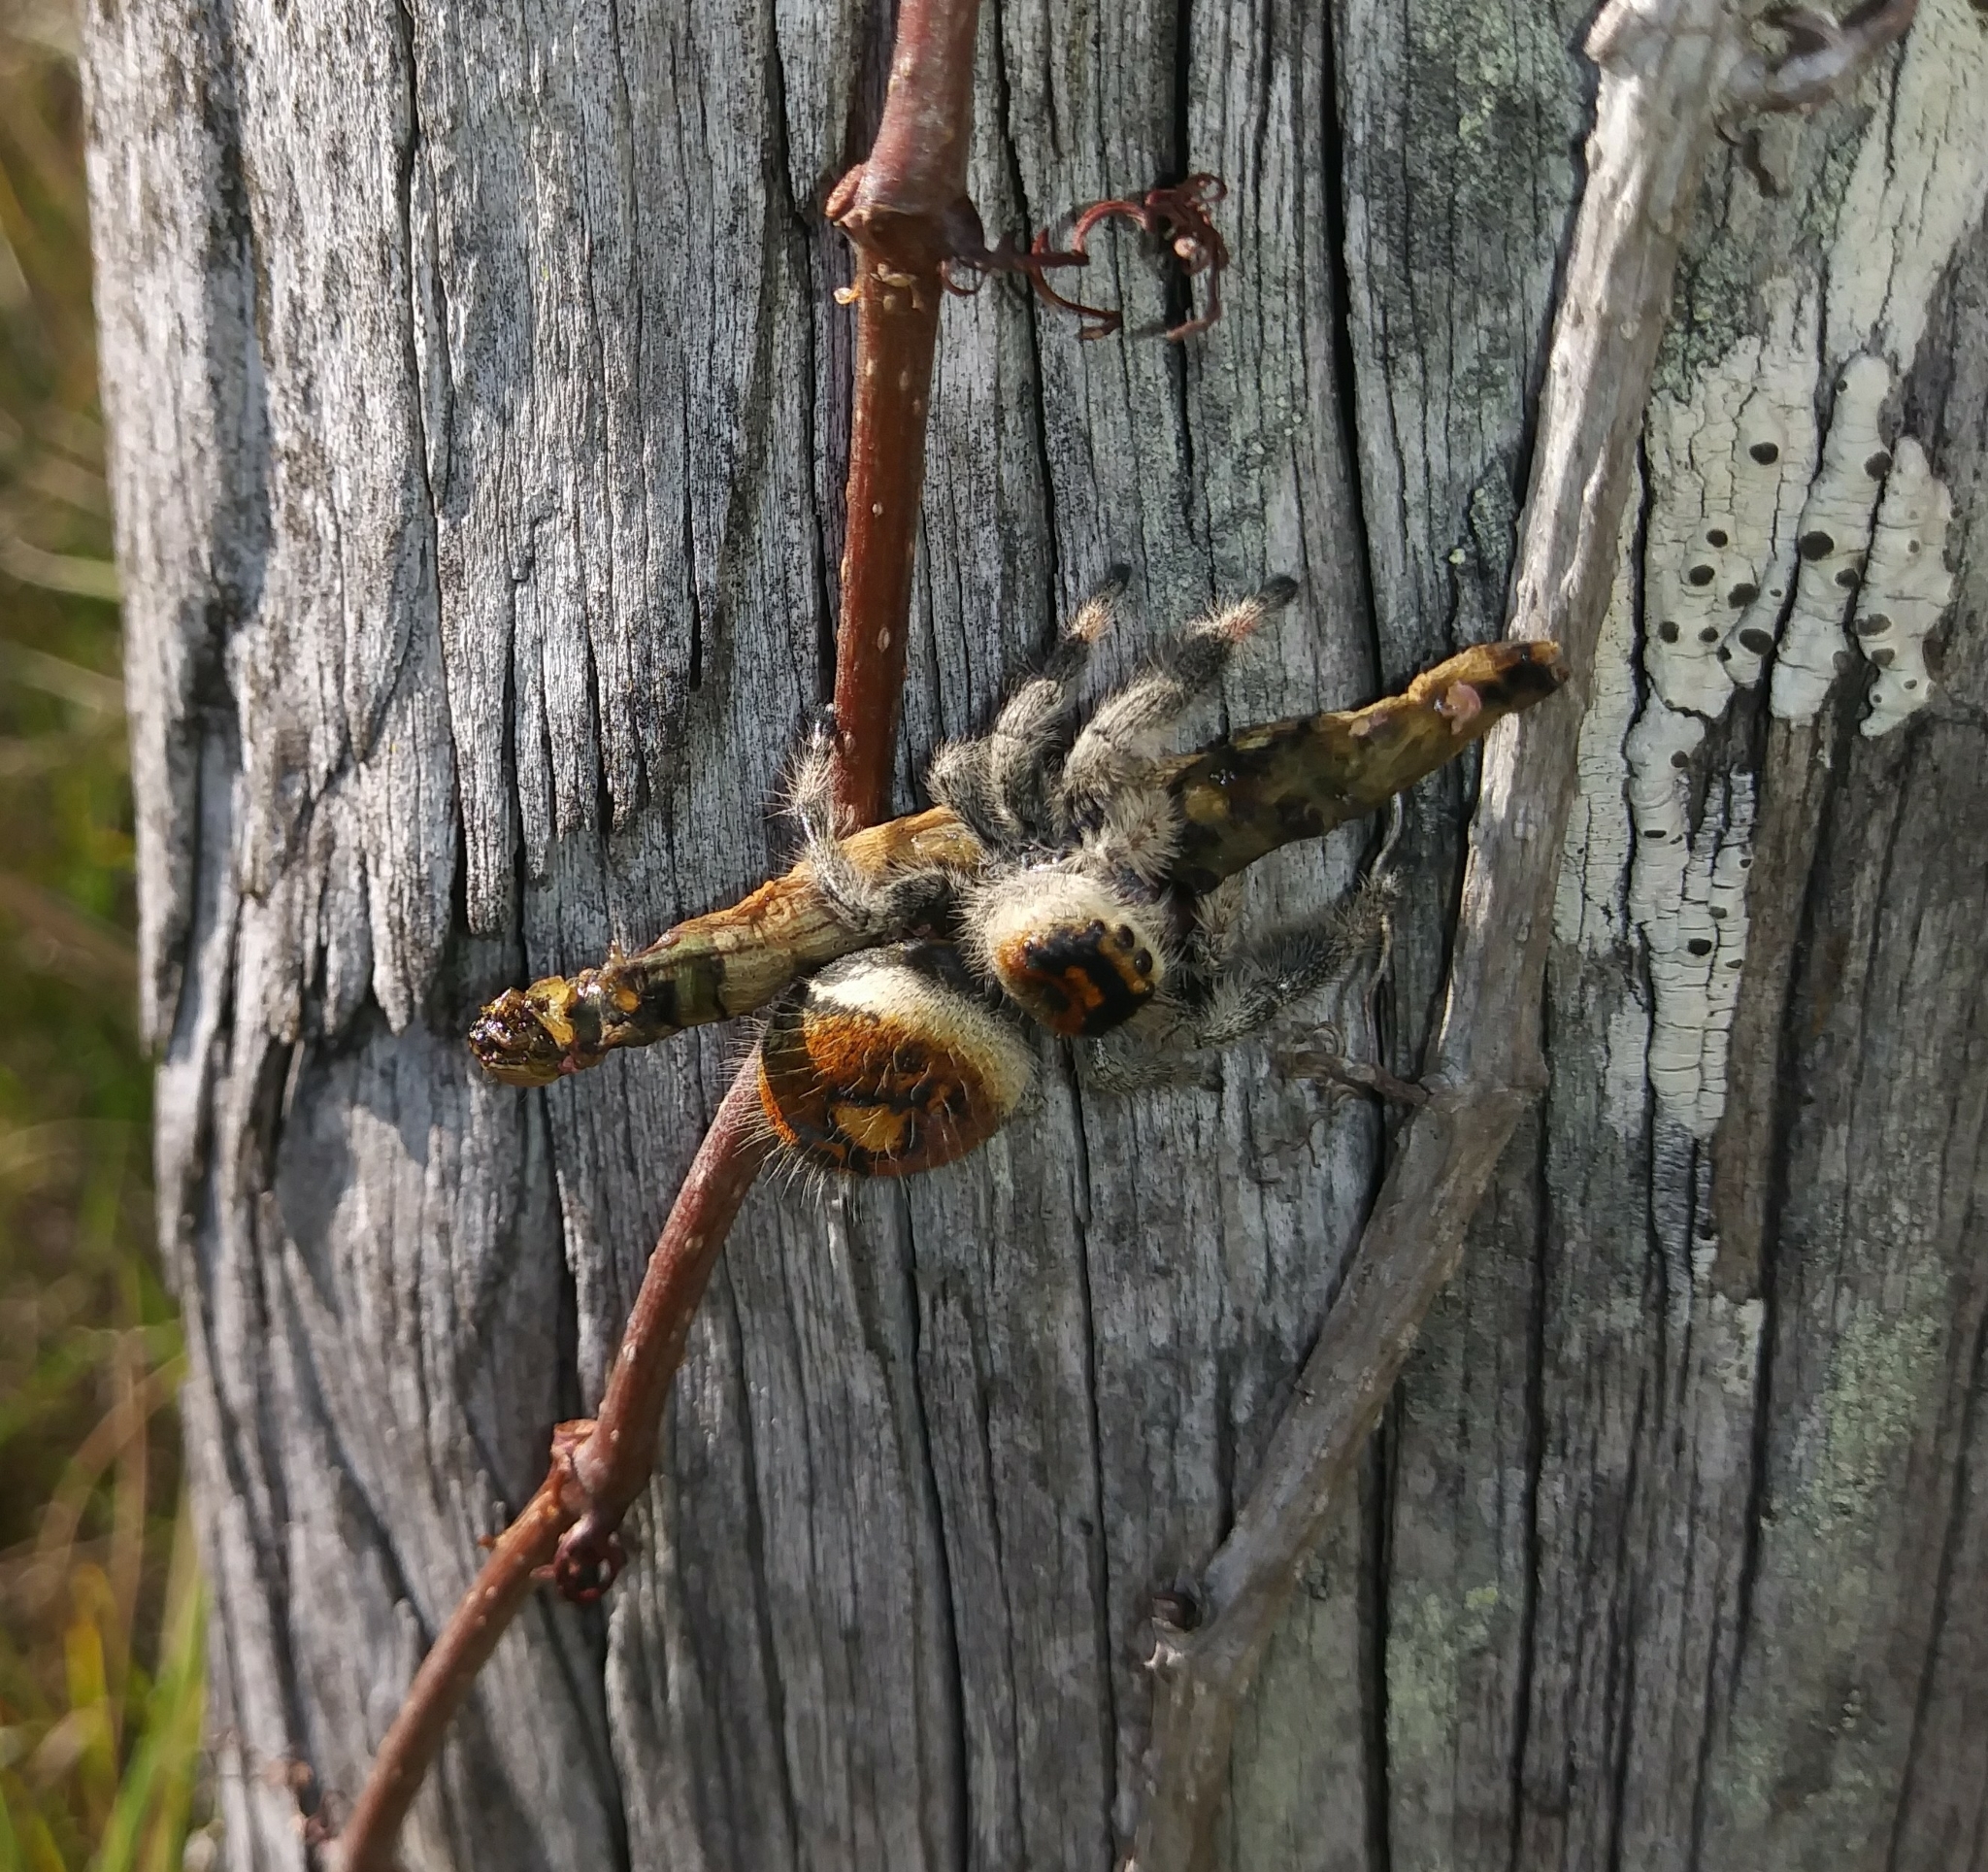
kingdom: Animalia
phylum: Arthropoda
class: Arachnida
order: Araneae
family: Salticidae
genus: Phidippus
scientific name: Phidippus regius
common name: Regal jumper
